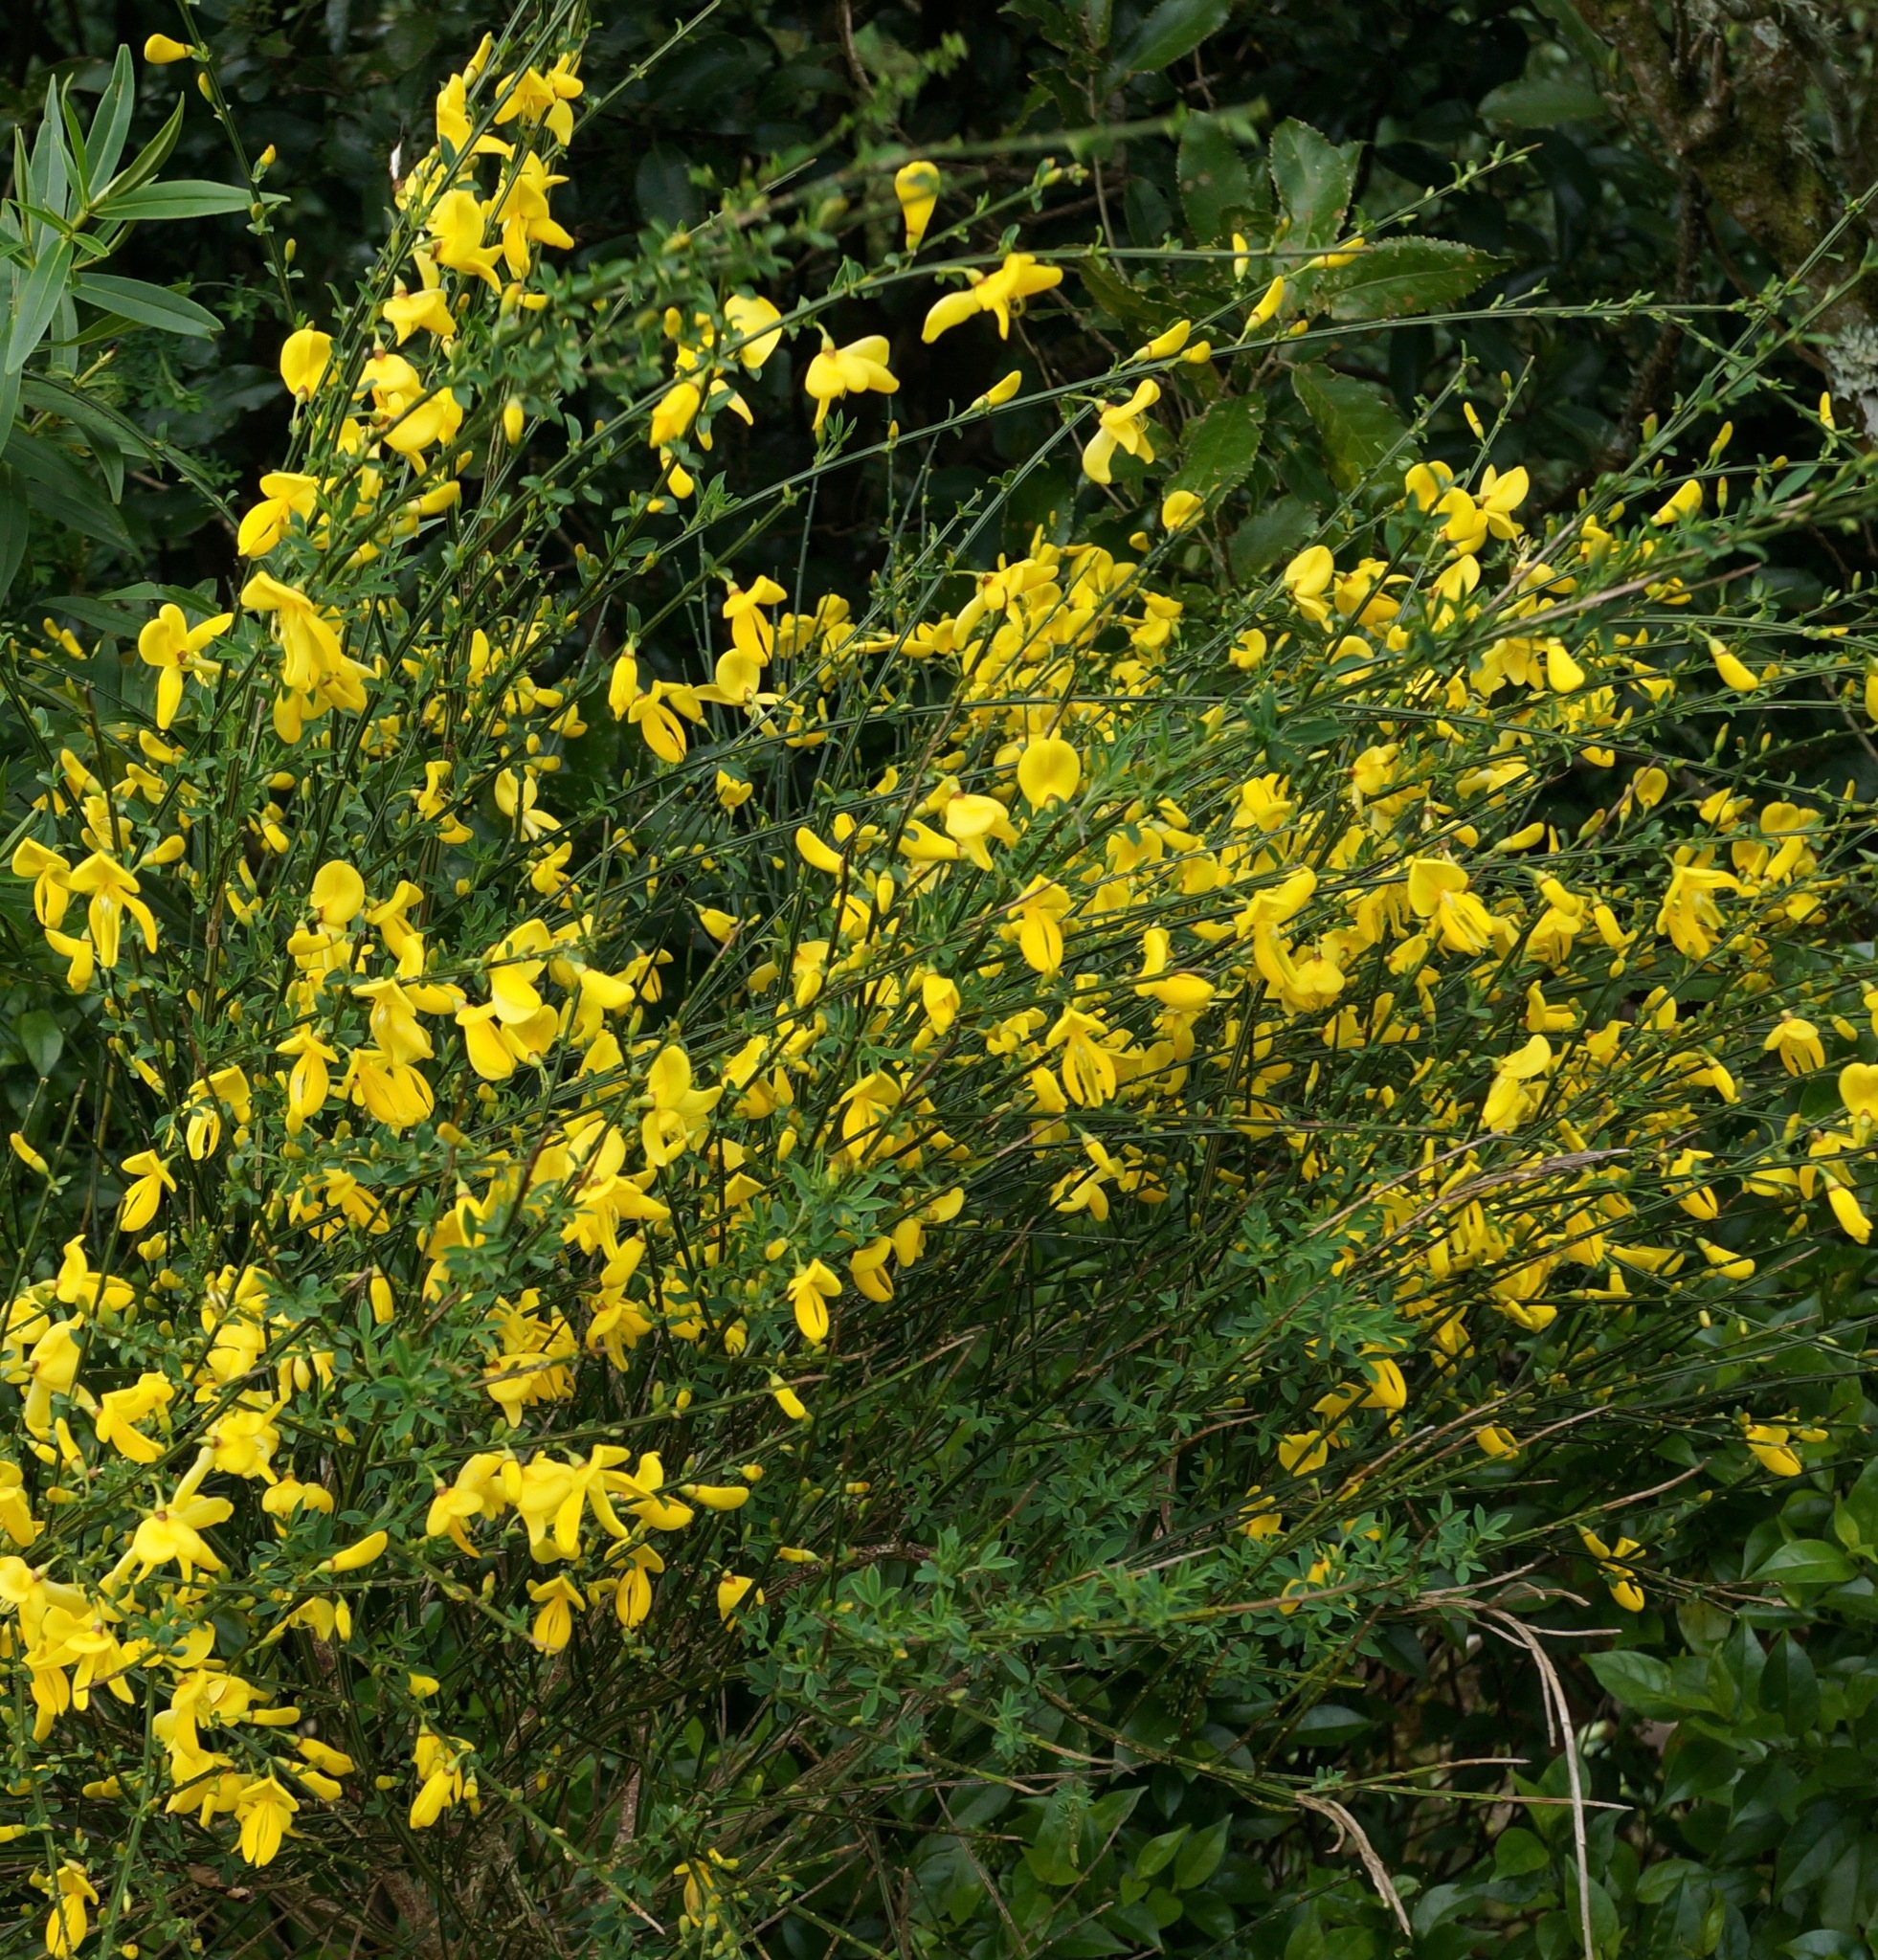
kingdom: Plantae
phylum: Tracheophyta
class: Magnoliopsida
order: Fabales
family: Fabaceae
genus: Cytisus
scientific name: Cytisus scoparius
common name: Scotch broom
